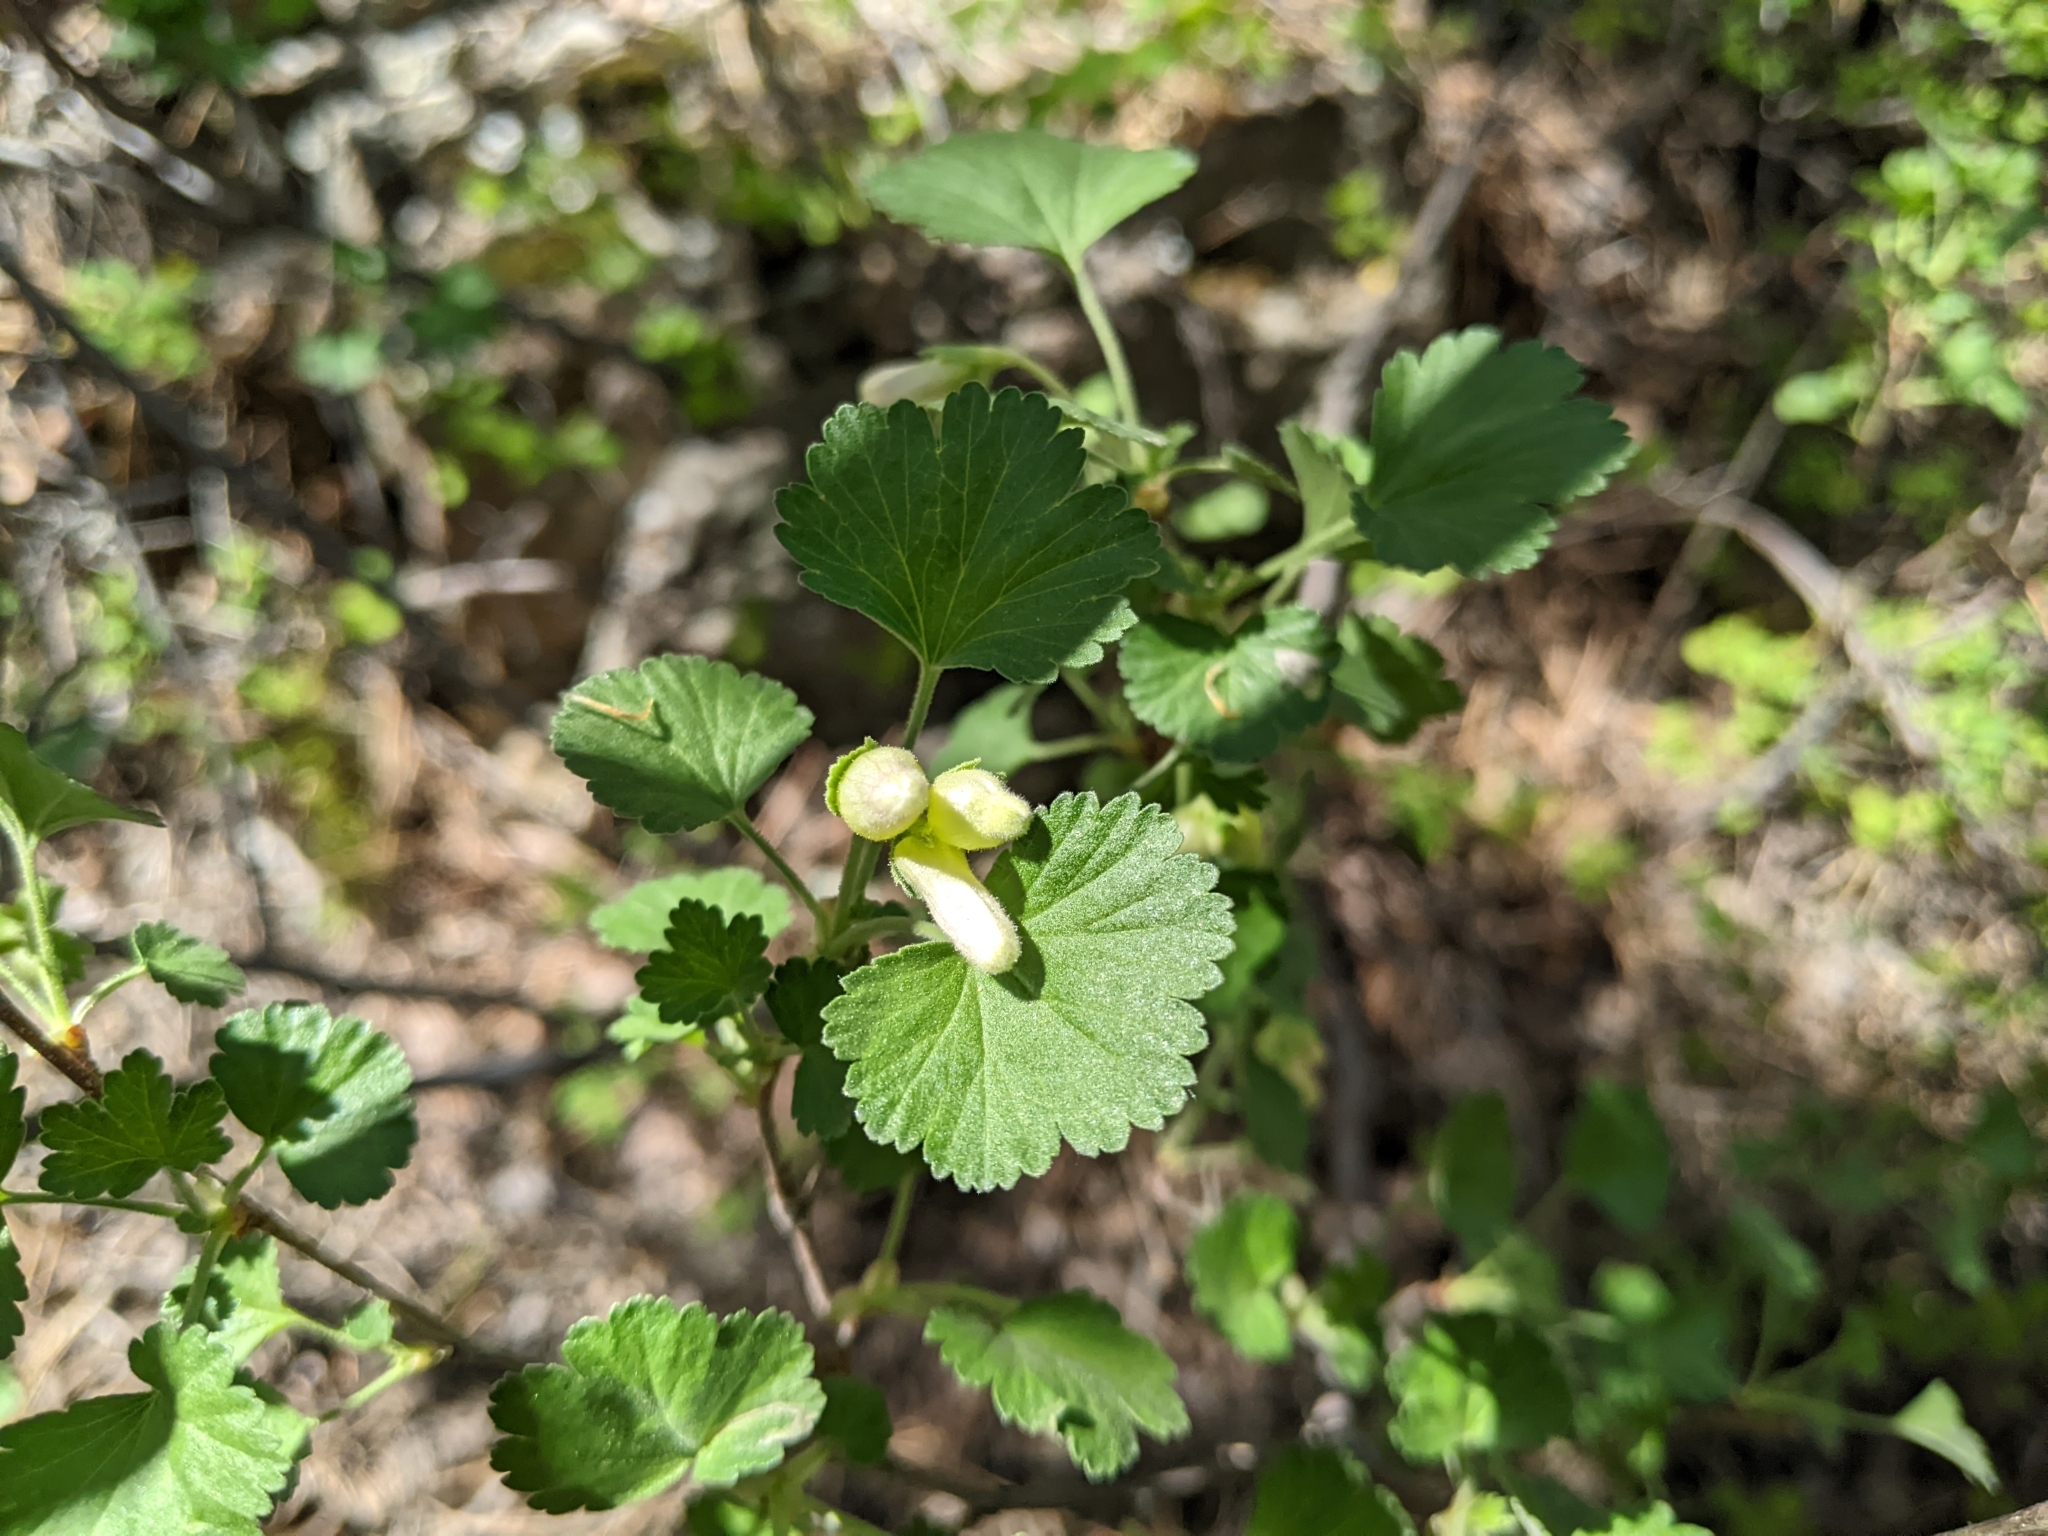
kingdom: Plantae
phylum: Tracheophyta
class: Magnoliopsida
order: Saxifragales
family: Grossulariaceae
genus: Ribes
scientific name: Ribes cereum
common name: Wax currant
